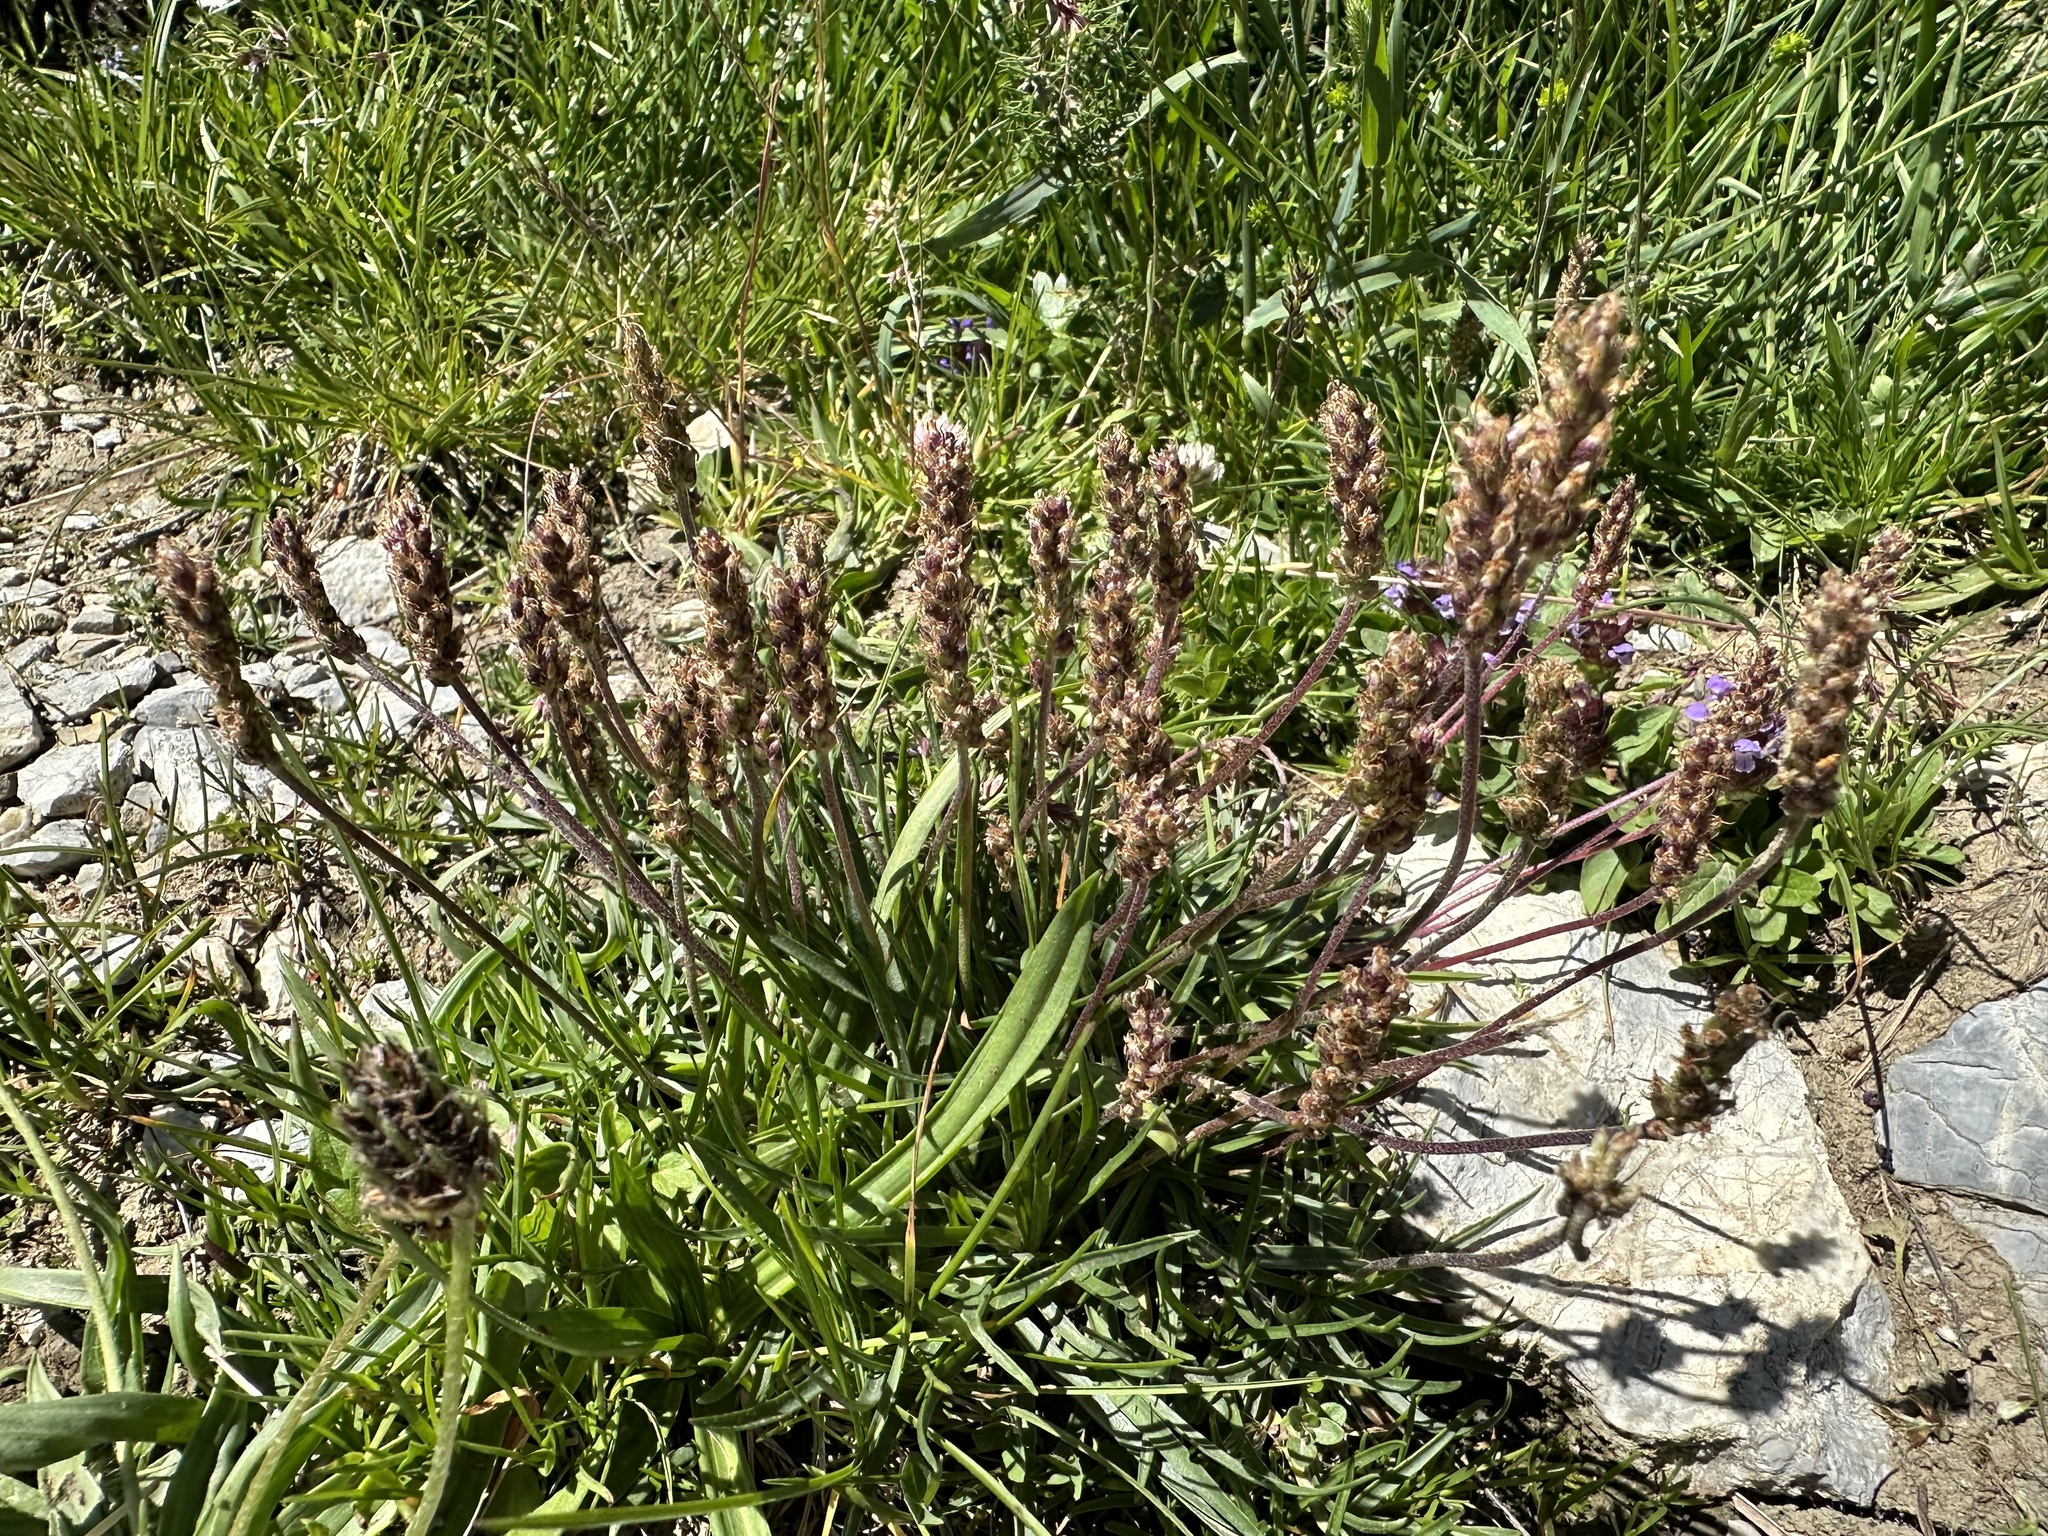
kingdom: Plantae
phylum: Tracheophyta
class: Magnoliopsida
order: Lamiales
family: Plantaginaceae
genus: Plantago
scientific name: Plantago alpina
